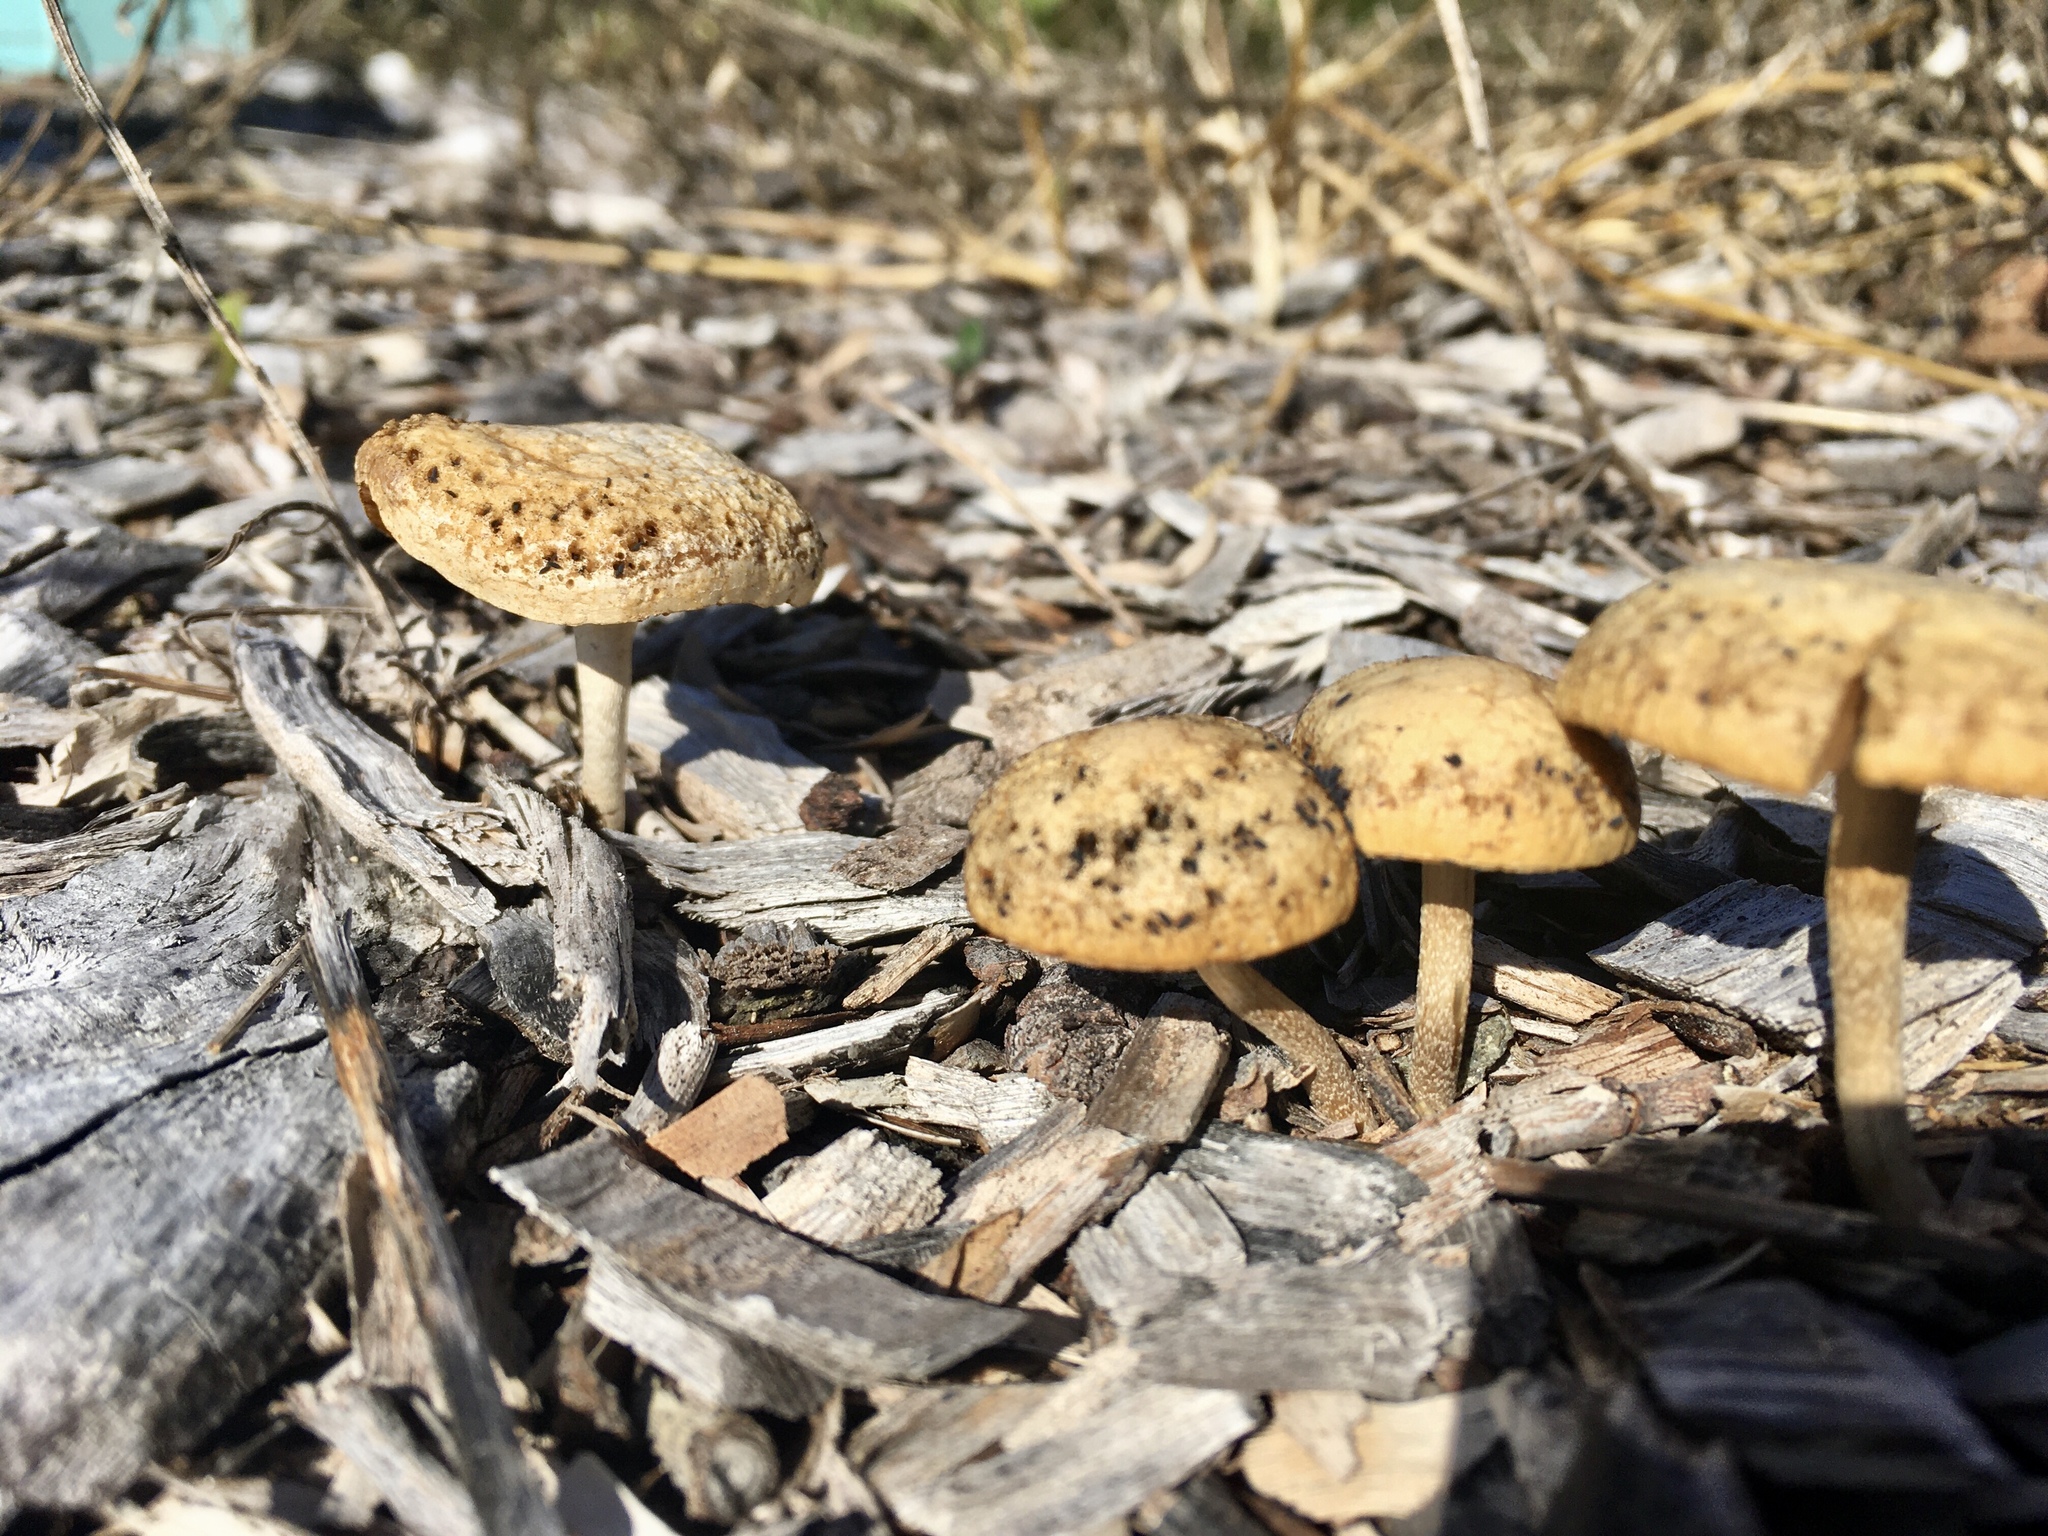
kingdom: Fungi
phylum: Basidiomycota
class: Agaricomycetes
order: Agaricales
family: Strophariaceae
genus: Agrocybe
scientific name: Agrocybe putaminum
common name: Mulch fieldcap
